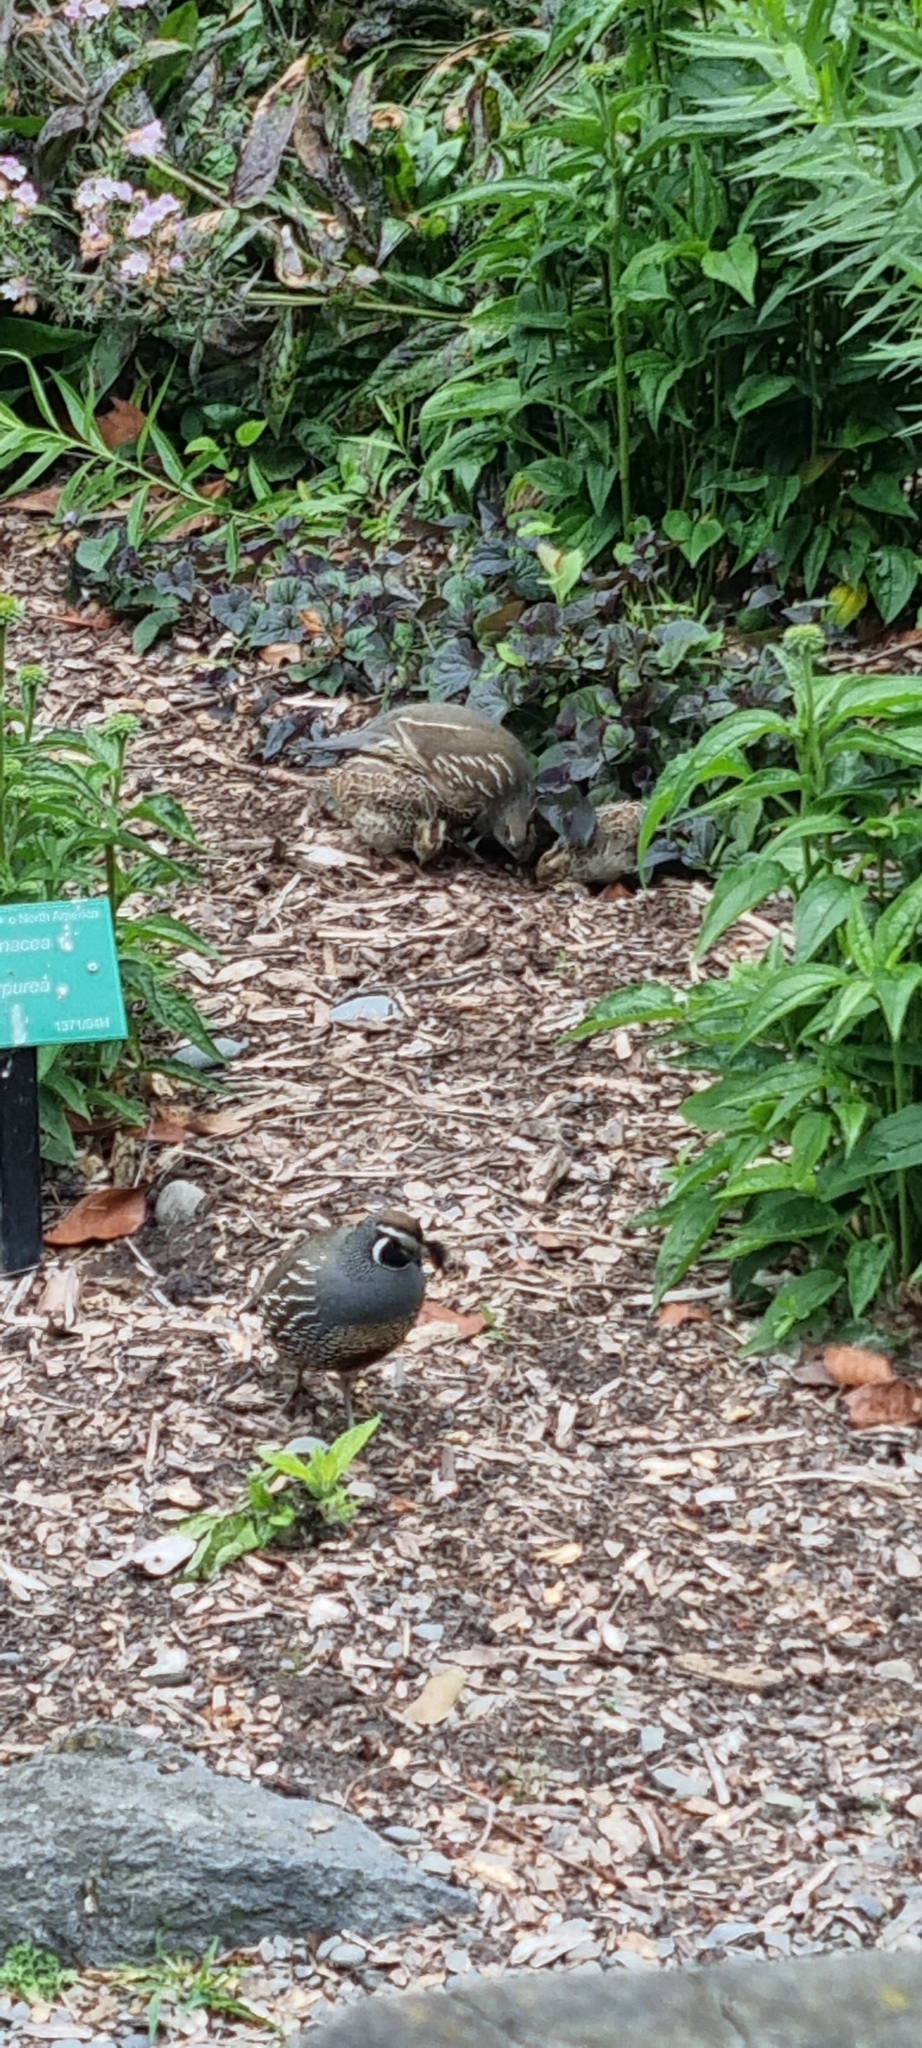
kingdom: Animalia
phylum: Chordata
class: Aves
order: Galliformes
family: Odontophoridae
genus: Callipepla
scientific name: Callipepla californica
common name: California quail
